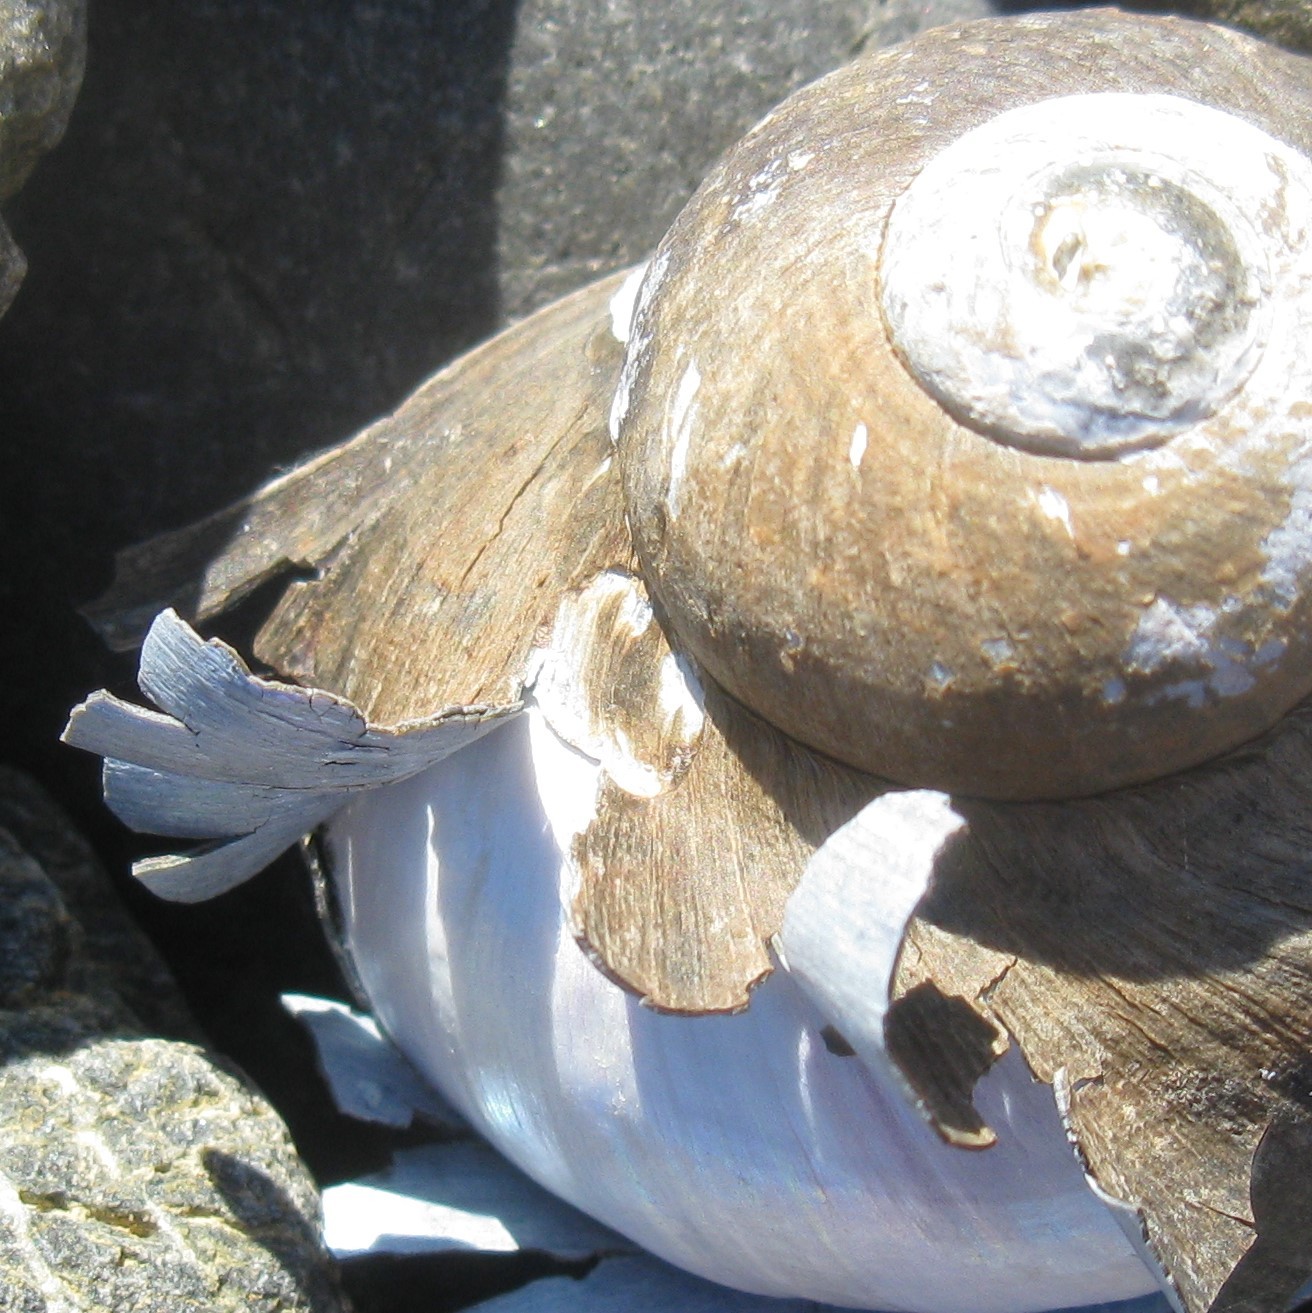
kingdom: Animalia
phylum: Mollusca
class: Gastropoda
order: Trochida
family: Turbinidae
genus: Lunella
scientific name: Lunella smaragda
